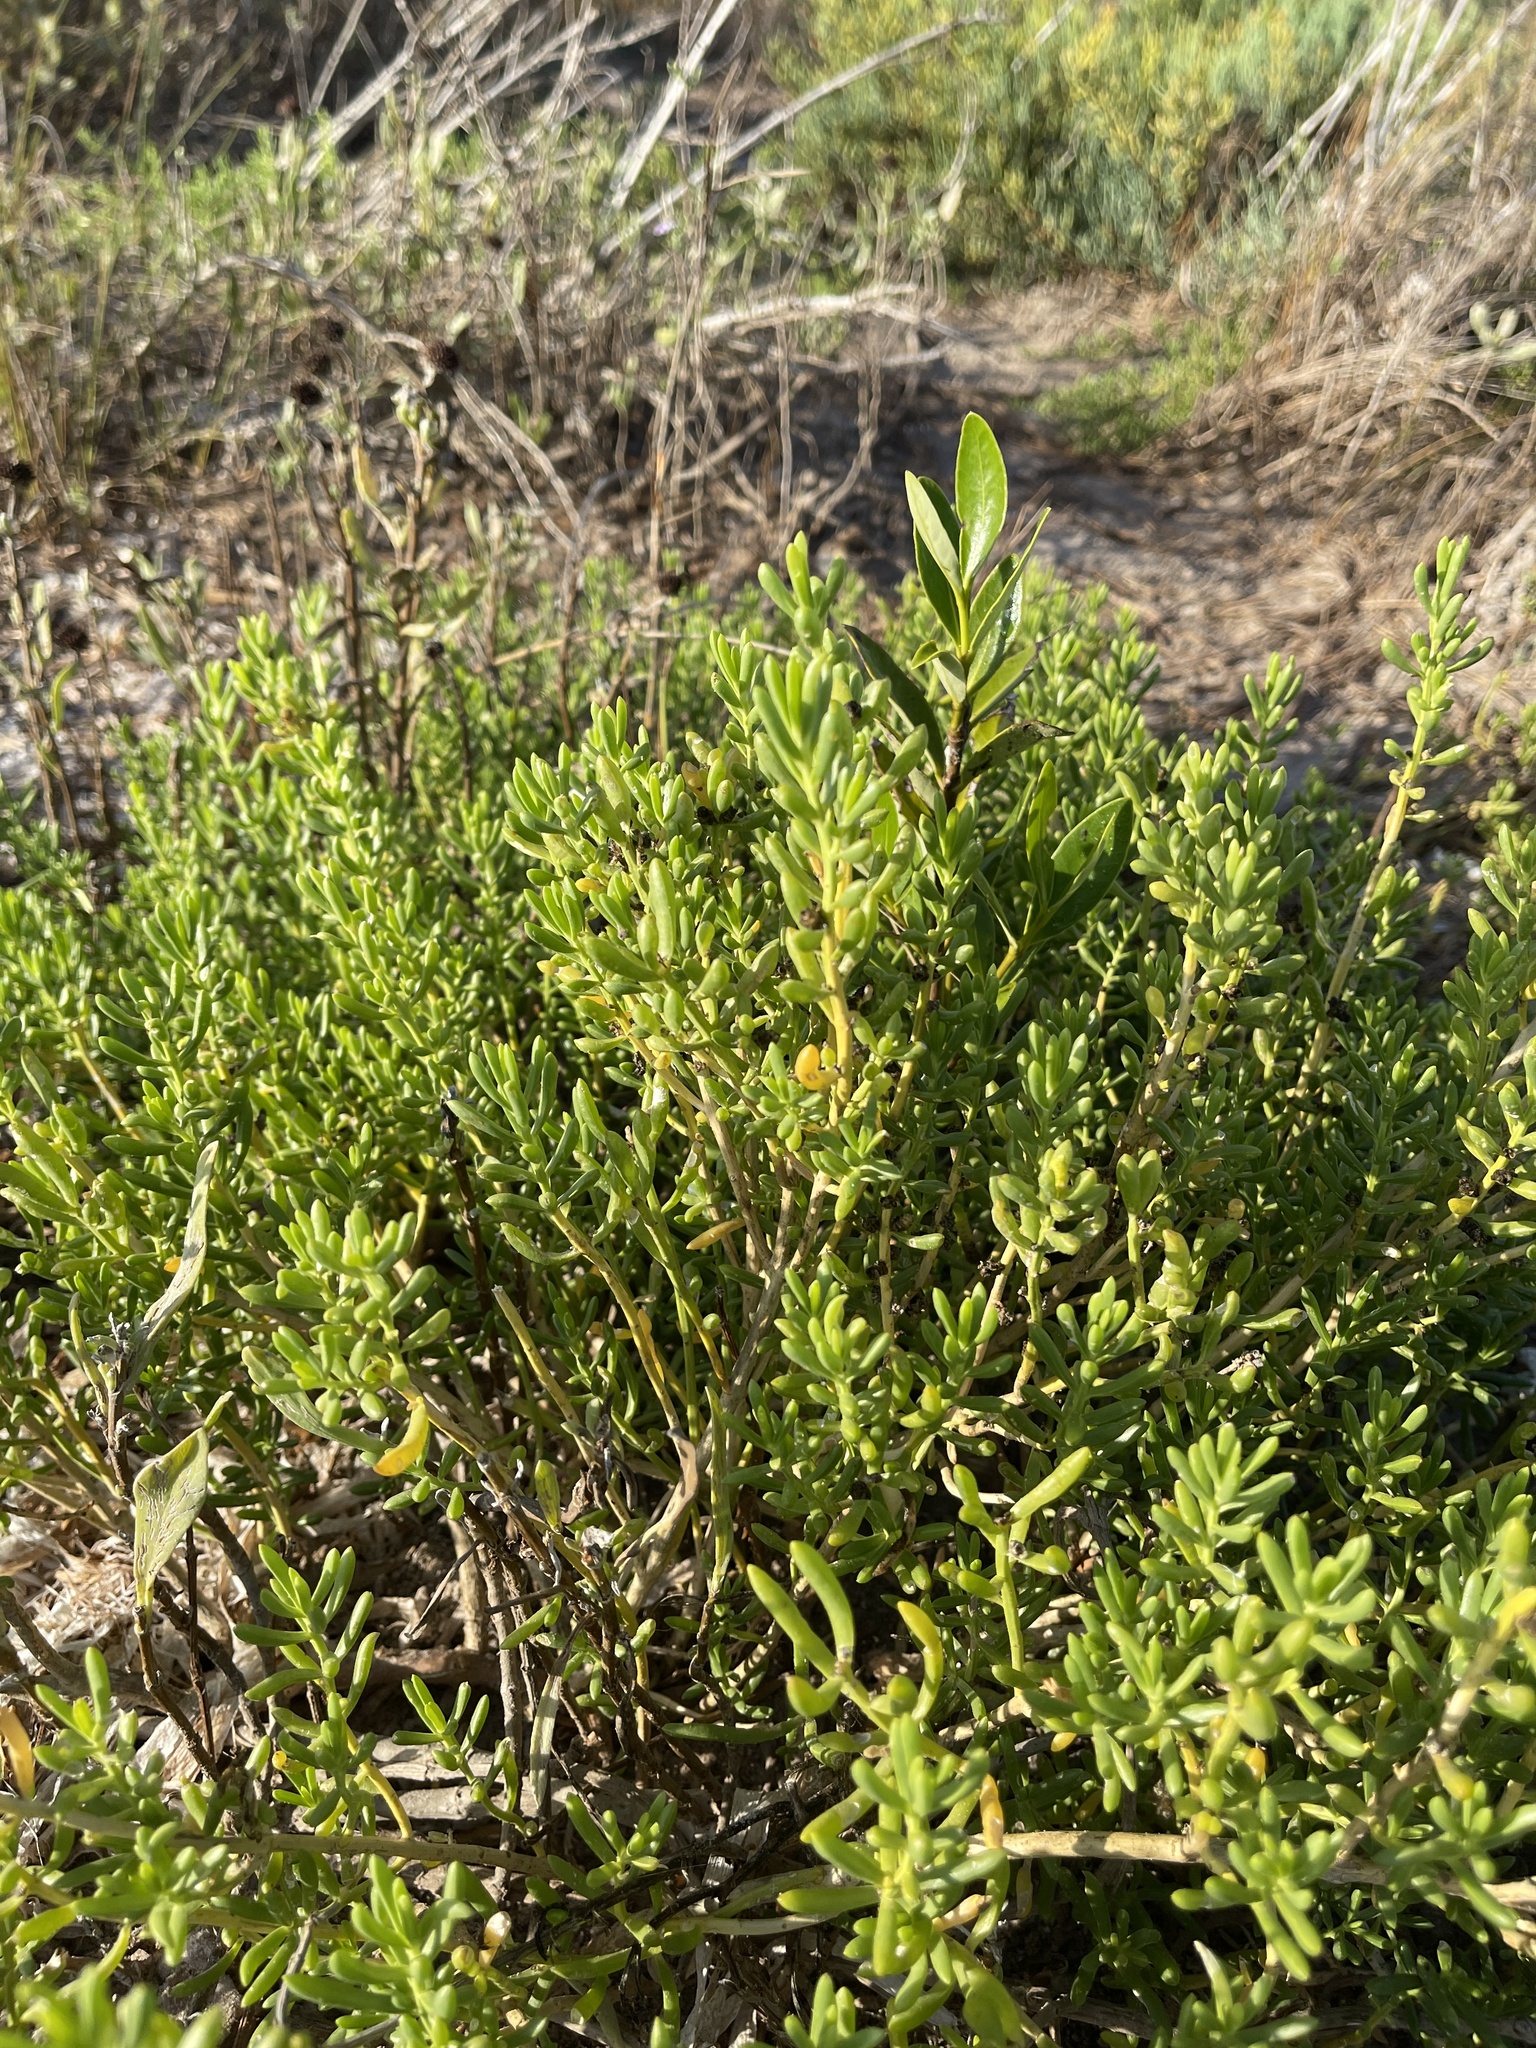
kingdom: Plantae
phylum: Tracheophyta
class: Magnoliopsida
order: Brassicales
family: Bataceae
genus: Batis
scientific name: Batis maritima
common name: Turtleweed
